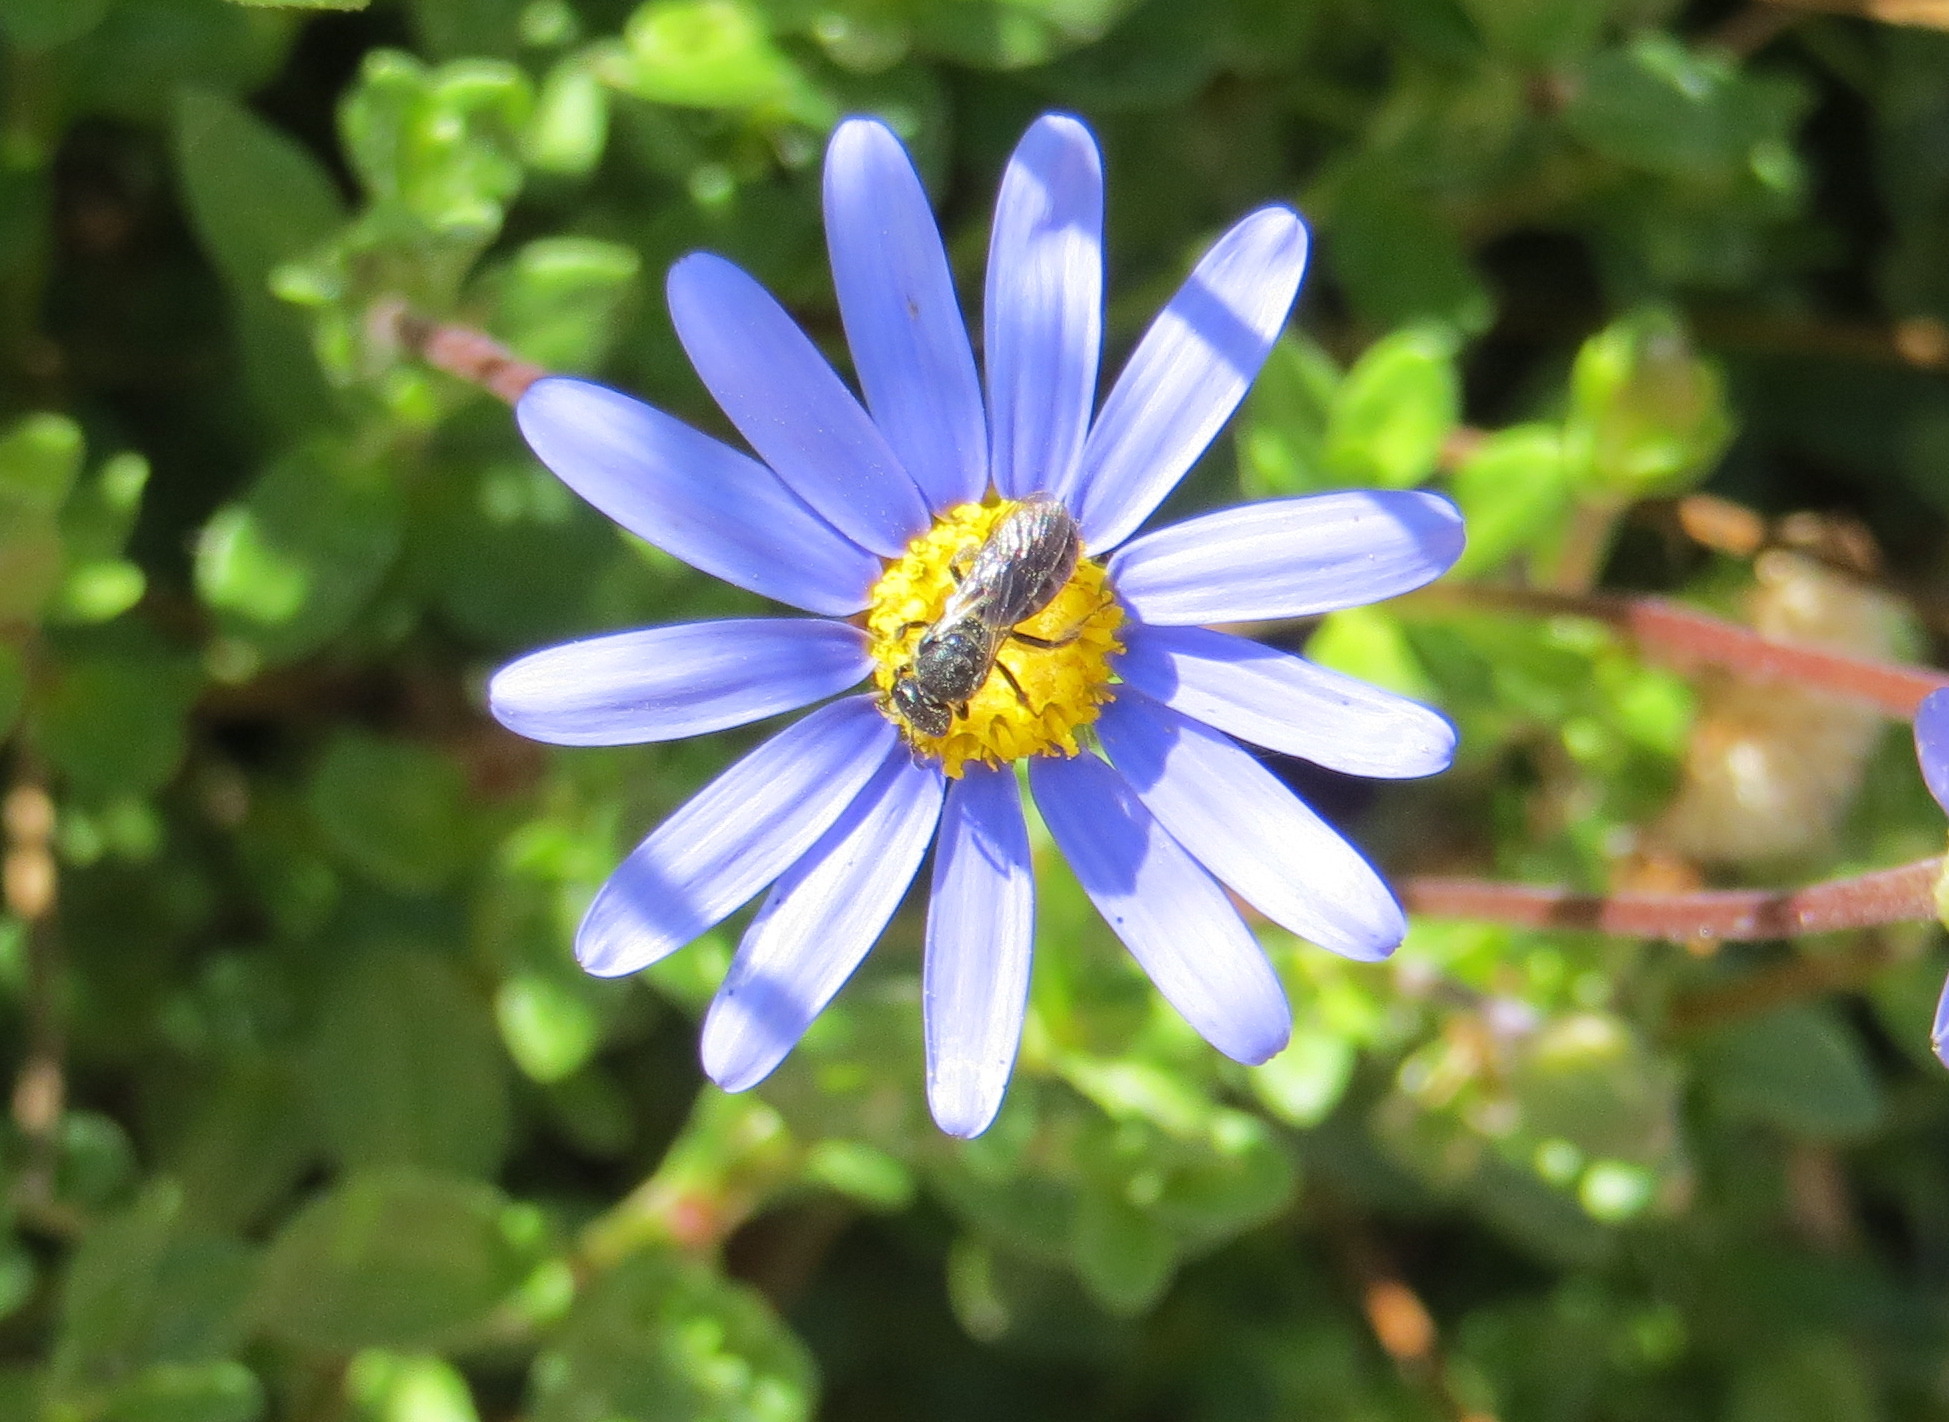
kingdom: Animalia
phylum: Arthropoda
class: Insecta
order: Hymenoptera
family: Halictidae
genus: Lasioglossum
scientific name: Lasioglossum
